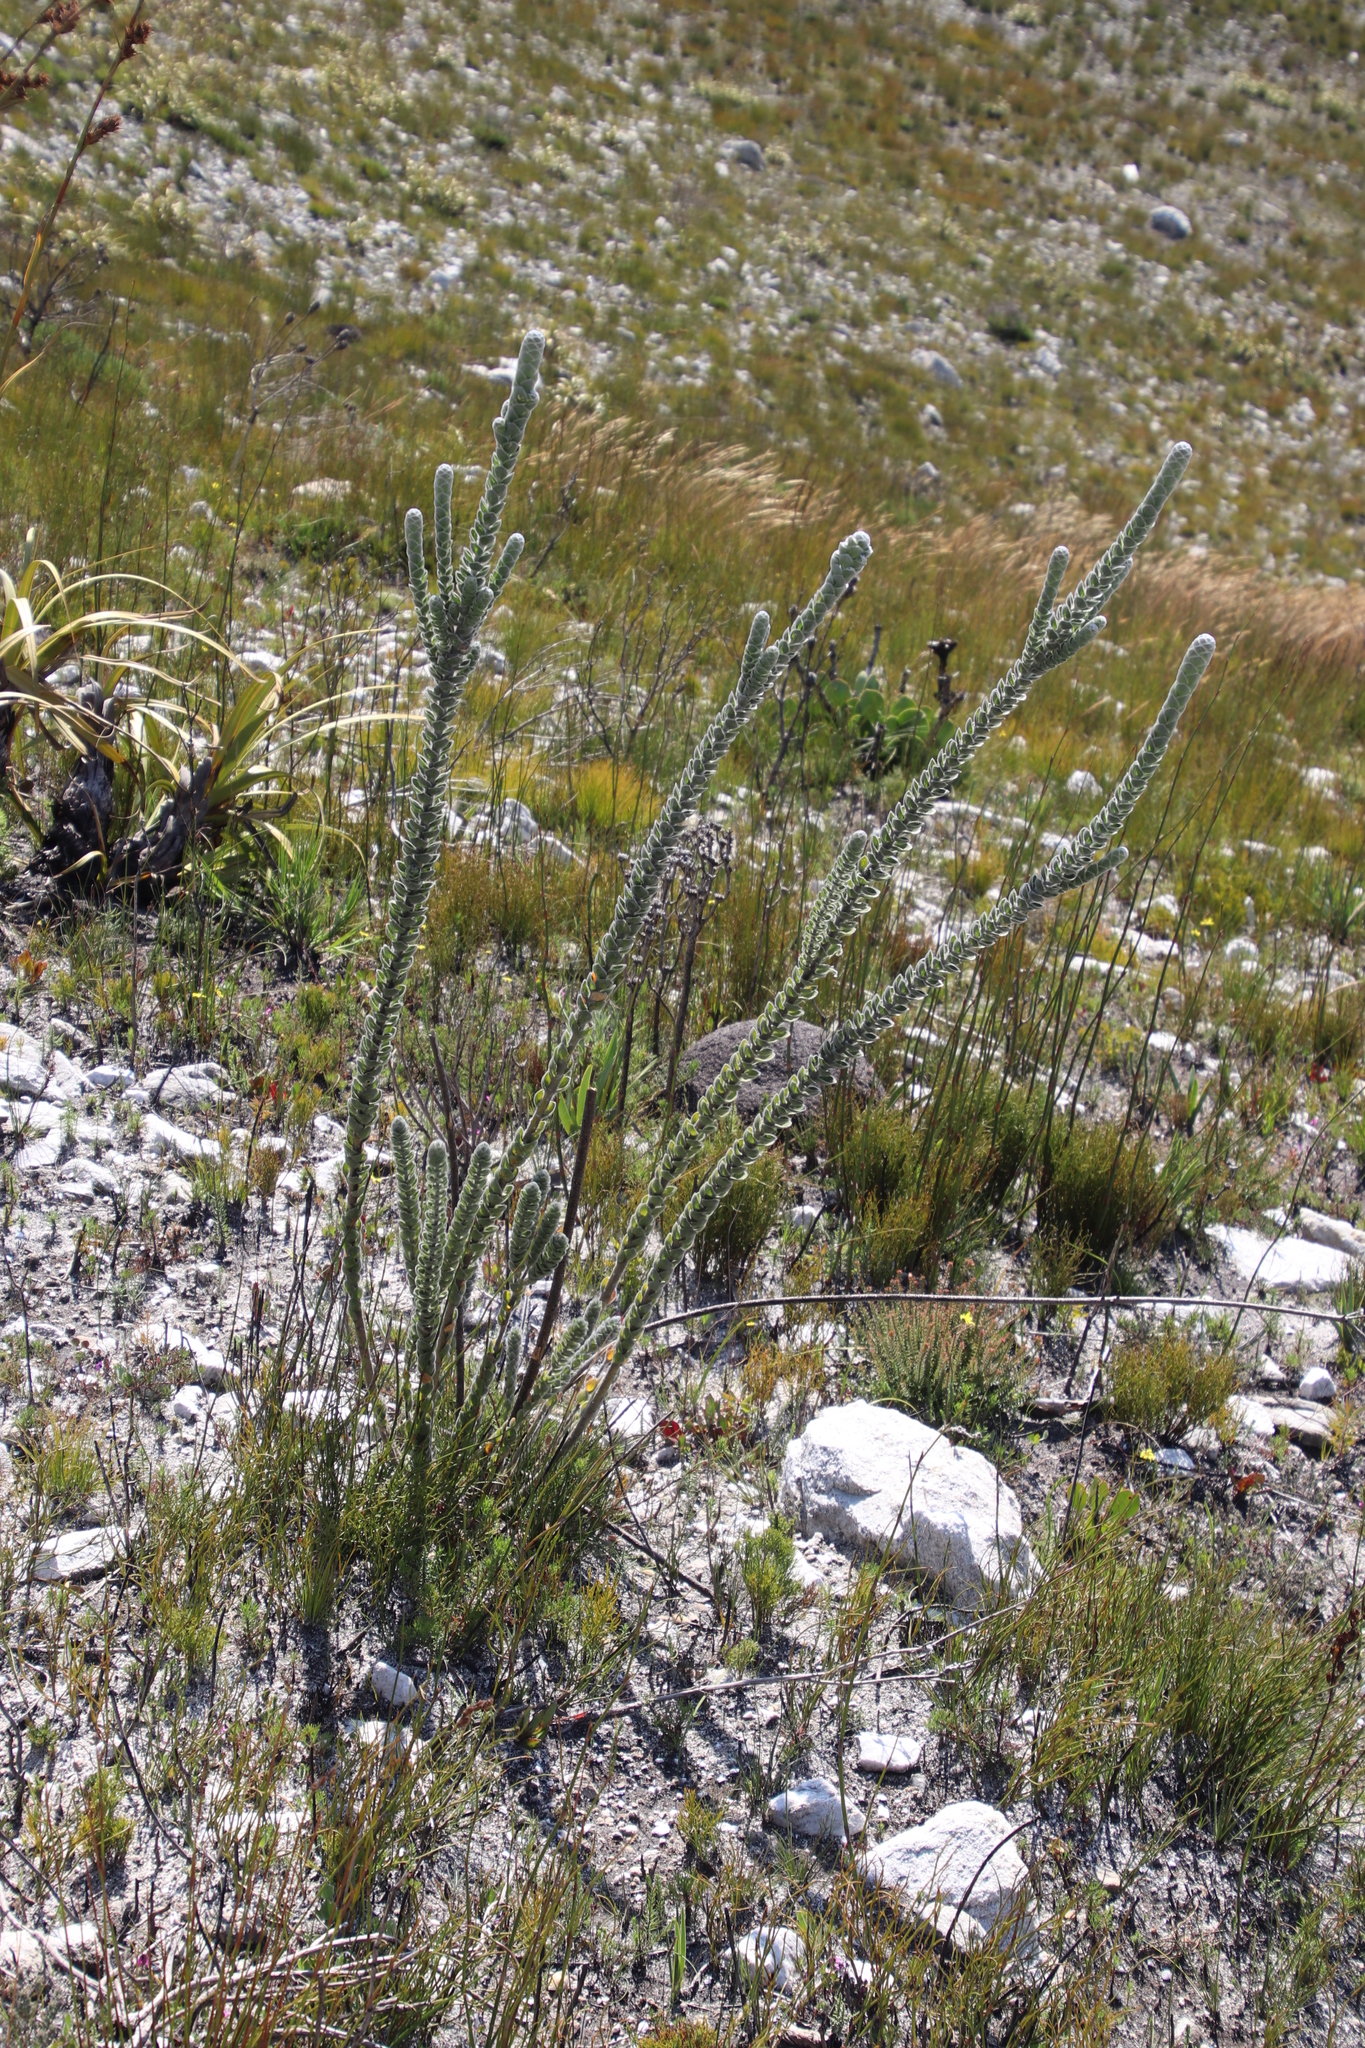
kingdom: Plantae
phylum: Tracheophyta
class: Magnoliopsida
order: Fabales
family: Fabaceae
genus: Liparia
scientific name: Liparia vestita
